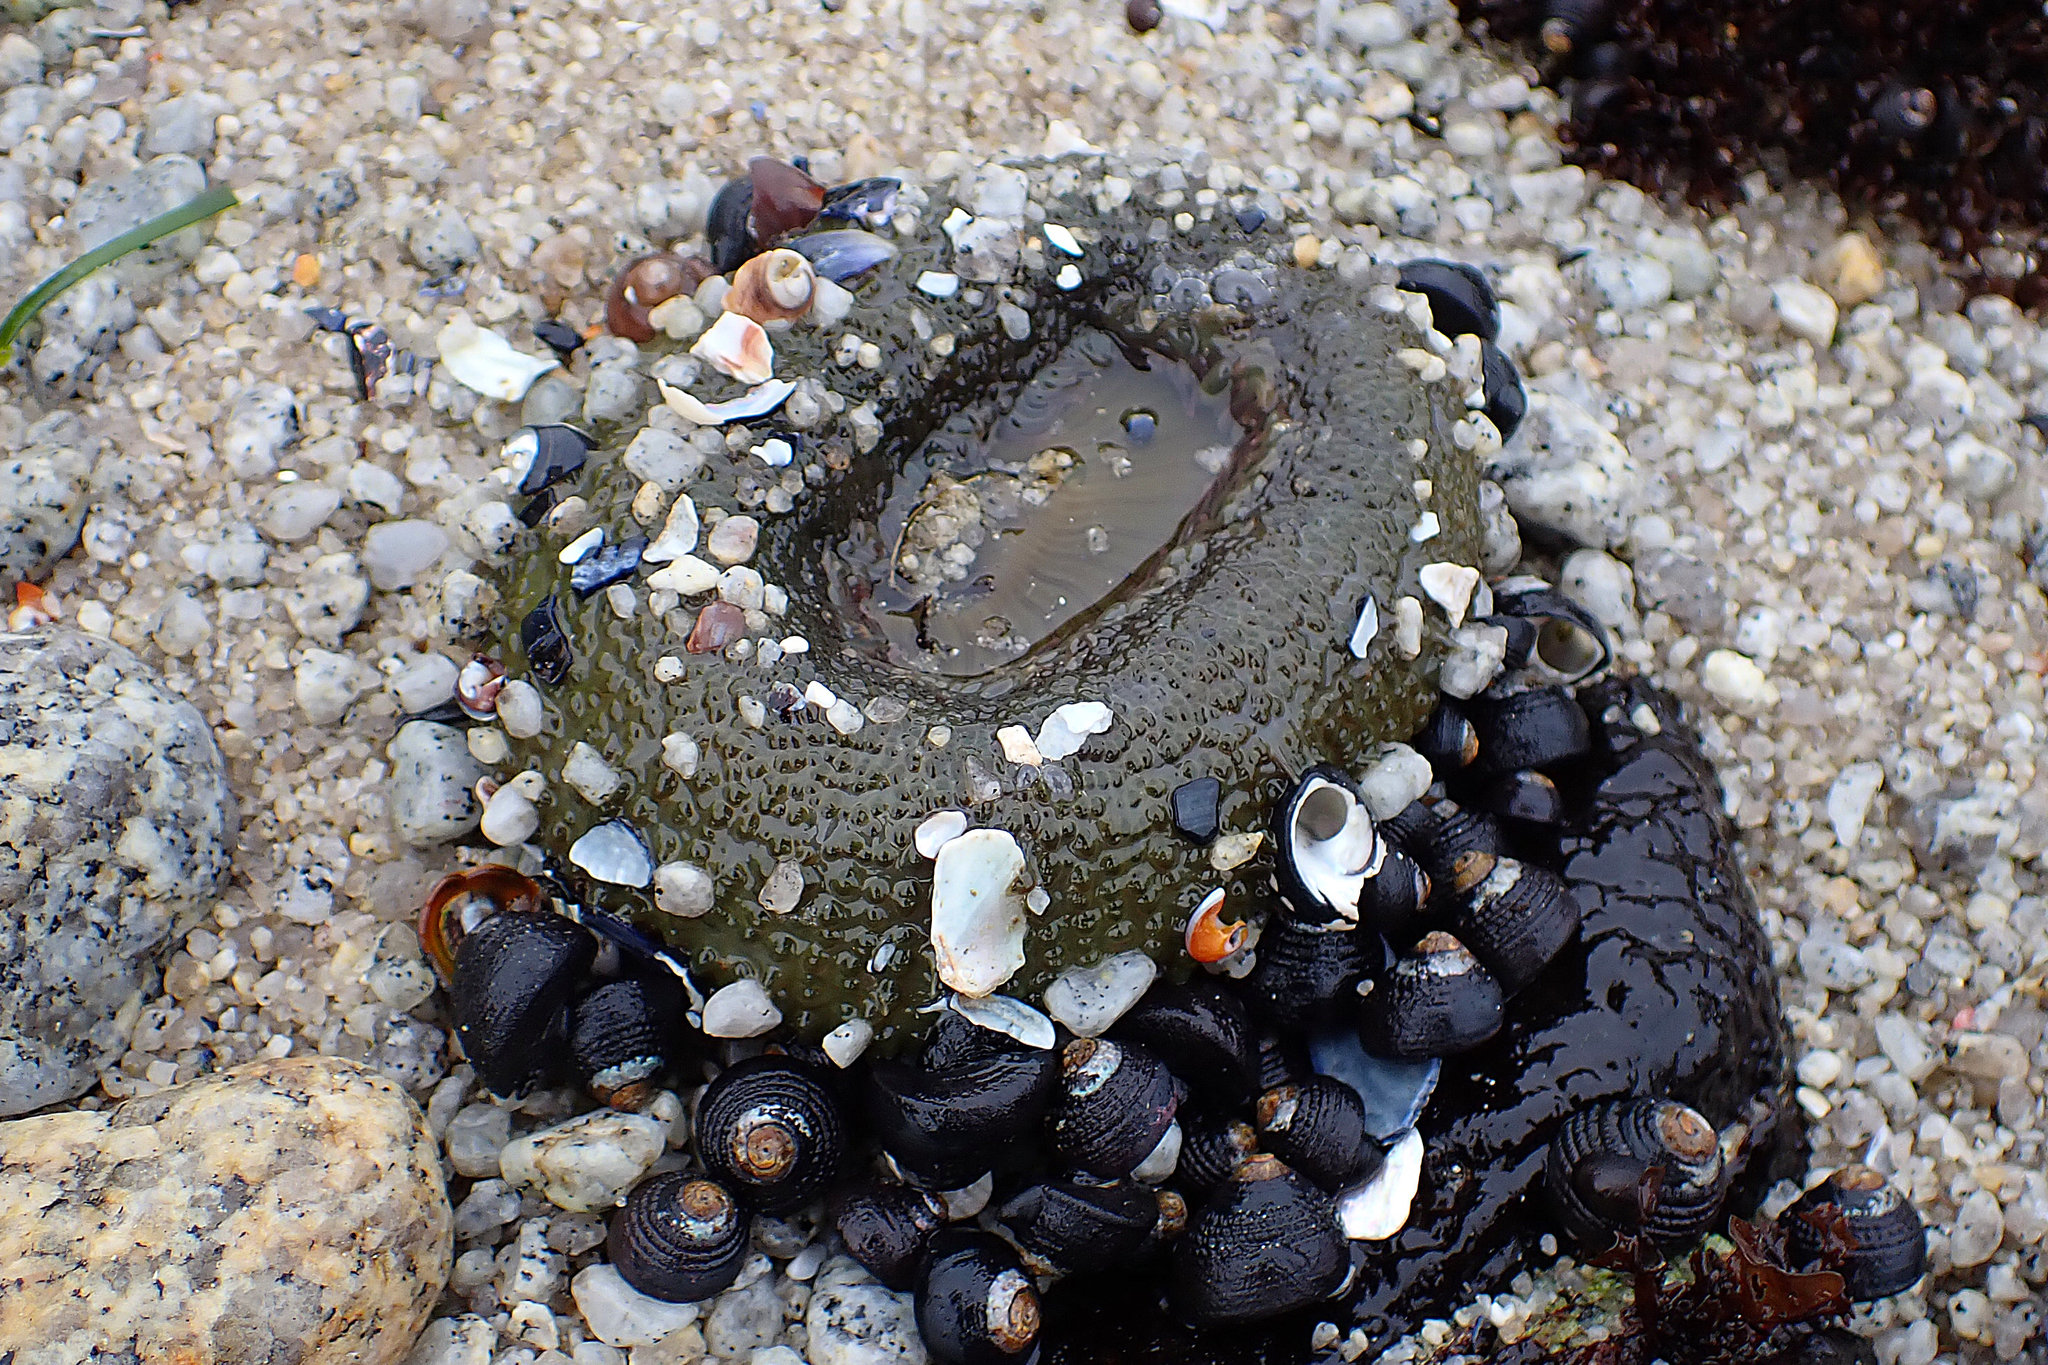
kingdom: Animalia
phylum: Cnidaria
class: Anthozoa
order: Actiniaria
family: Actiniidae
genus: Anthopleura
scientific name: Anthopleura xanthogrammica
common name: Giant green anemone
